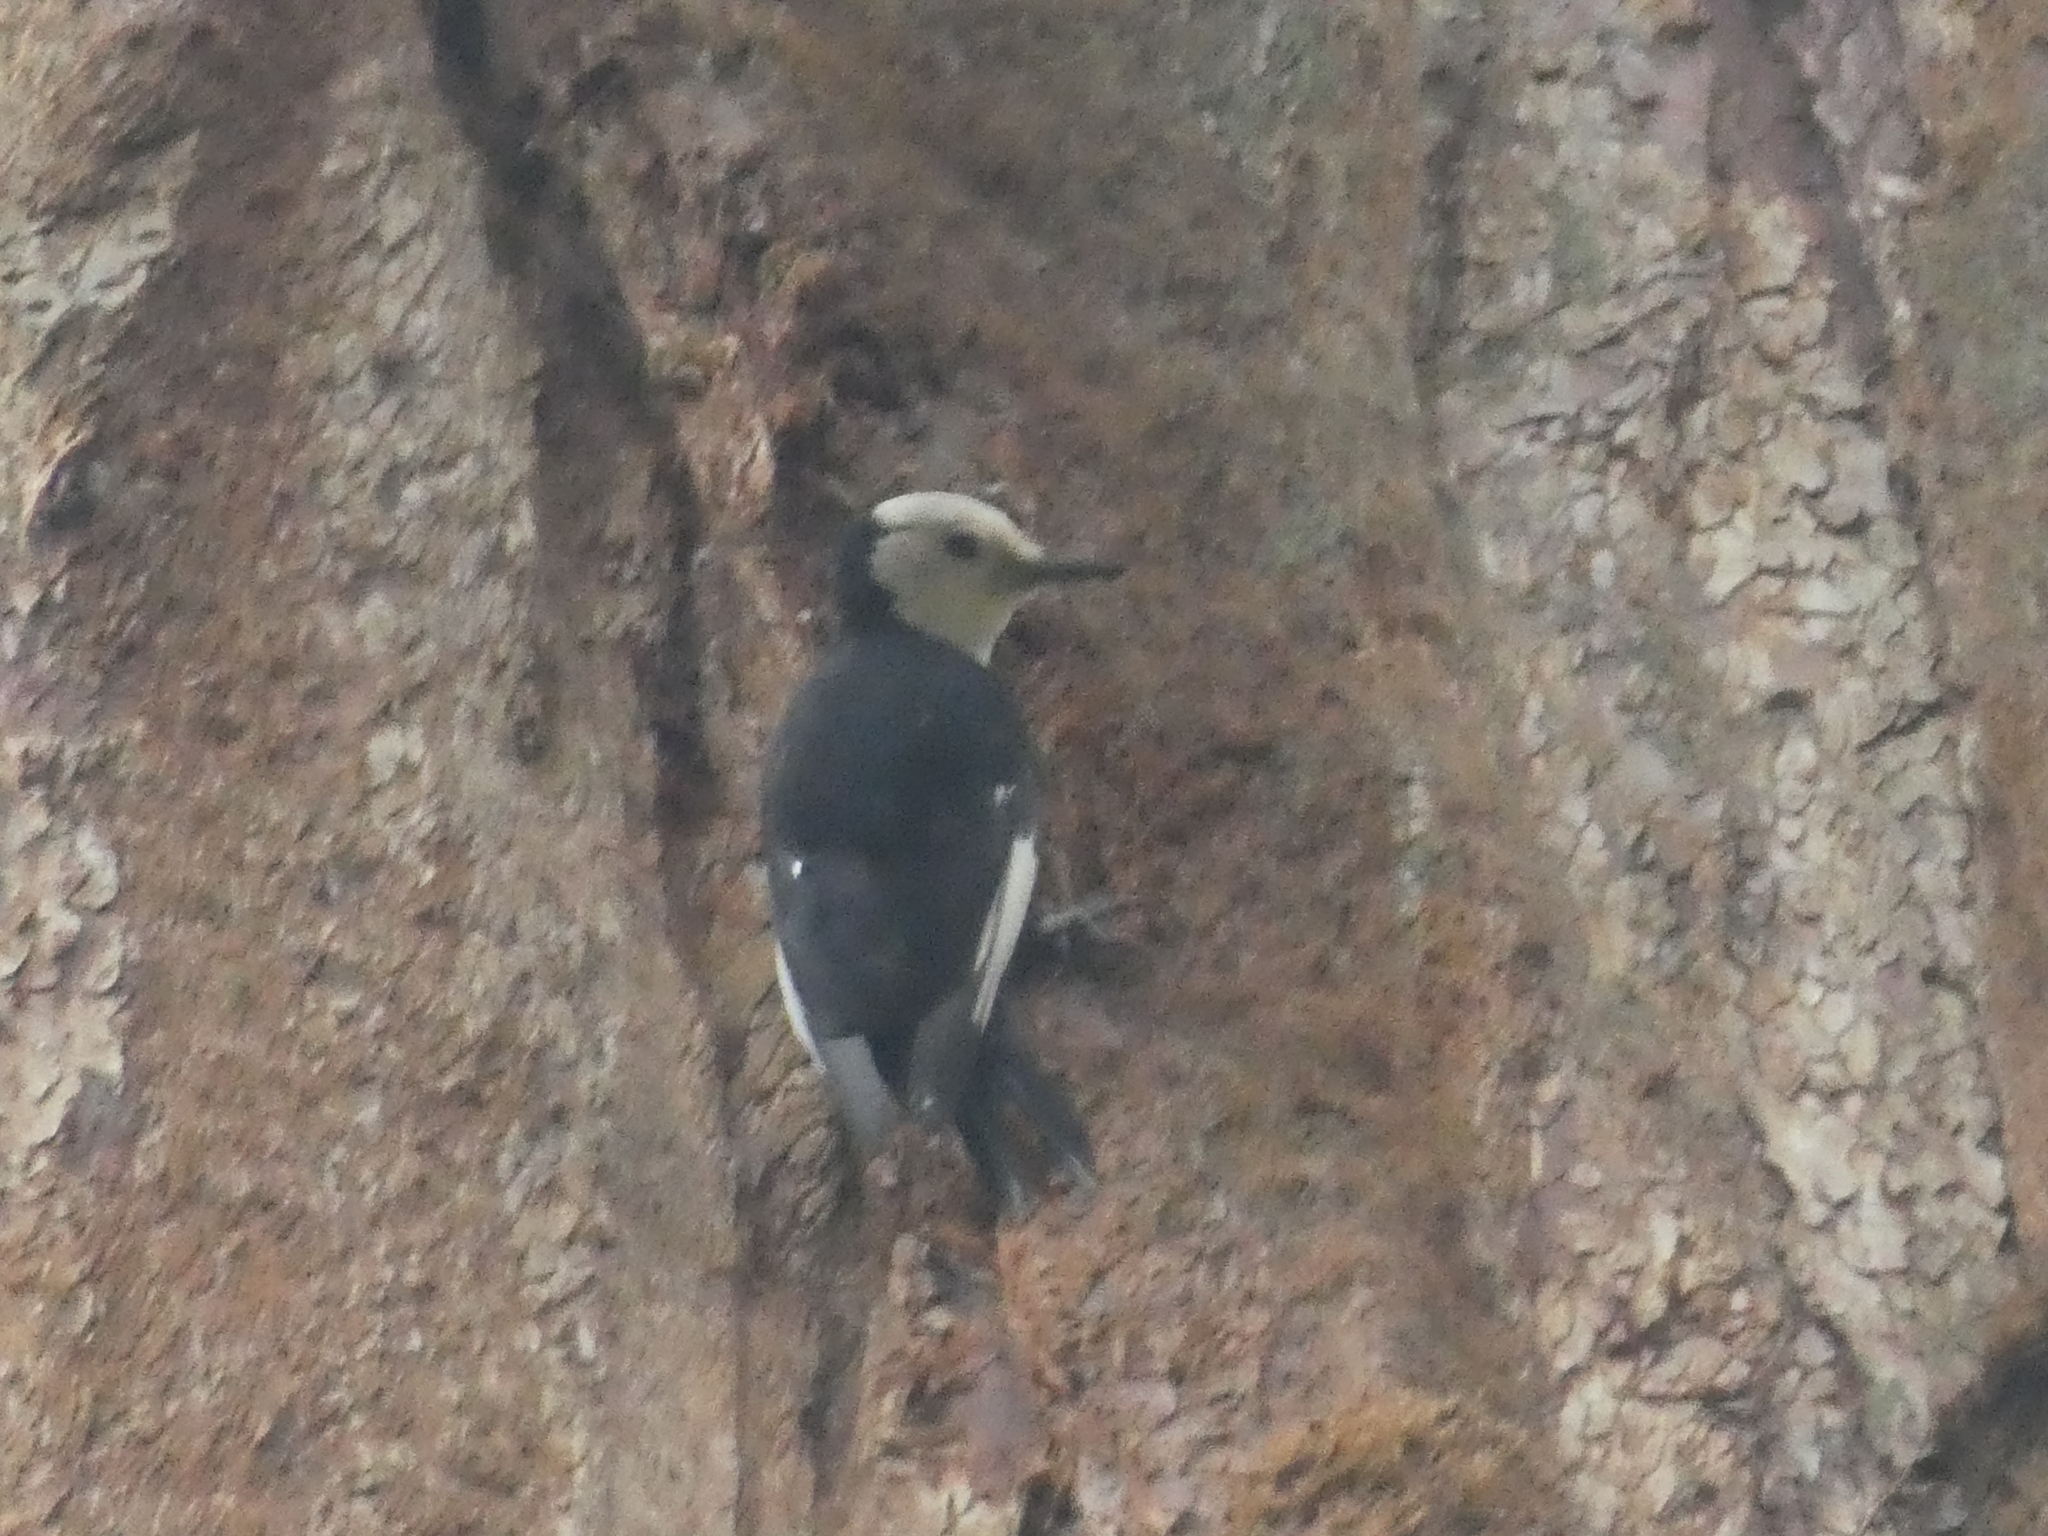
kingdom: Animalia
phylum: Chordata
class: Aves
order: Piciformes
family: Picidae
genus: Leuconotopicus
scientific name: Leuconotopicus albolarvatus
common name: White-headed woodpecker
